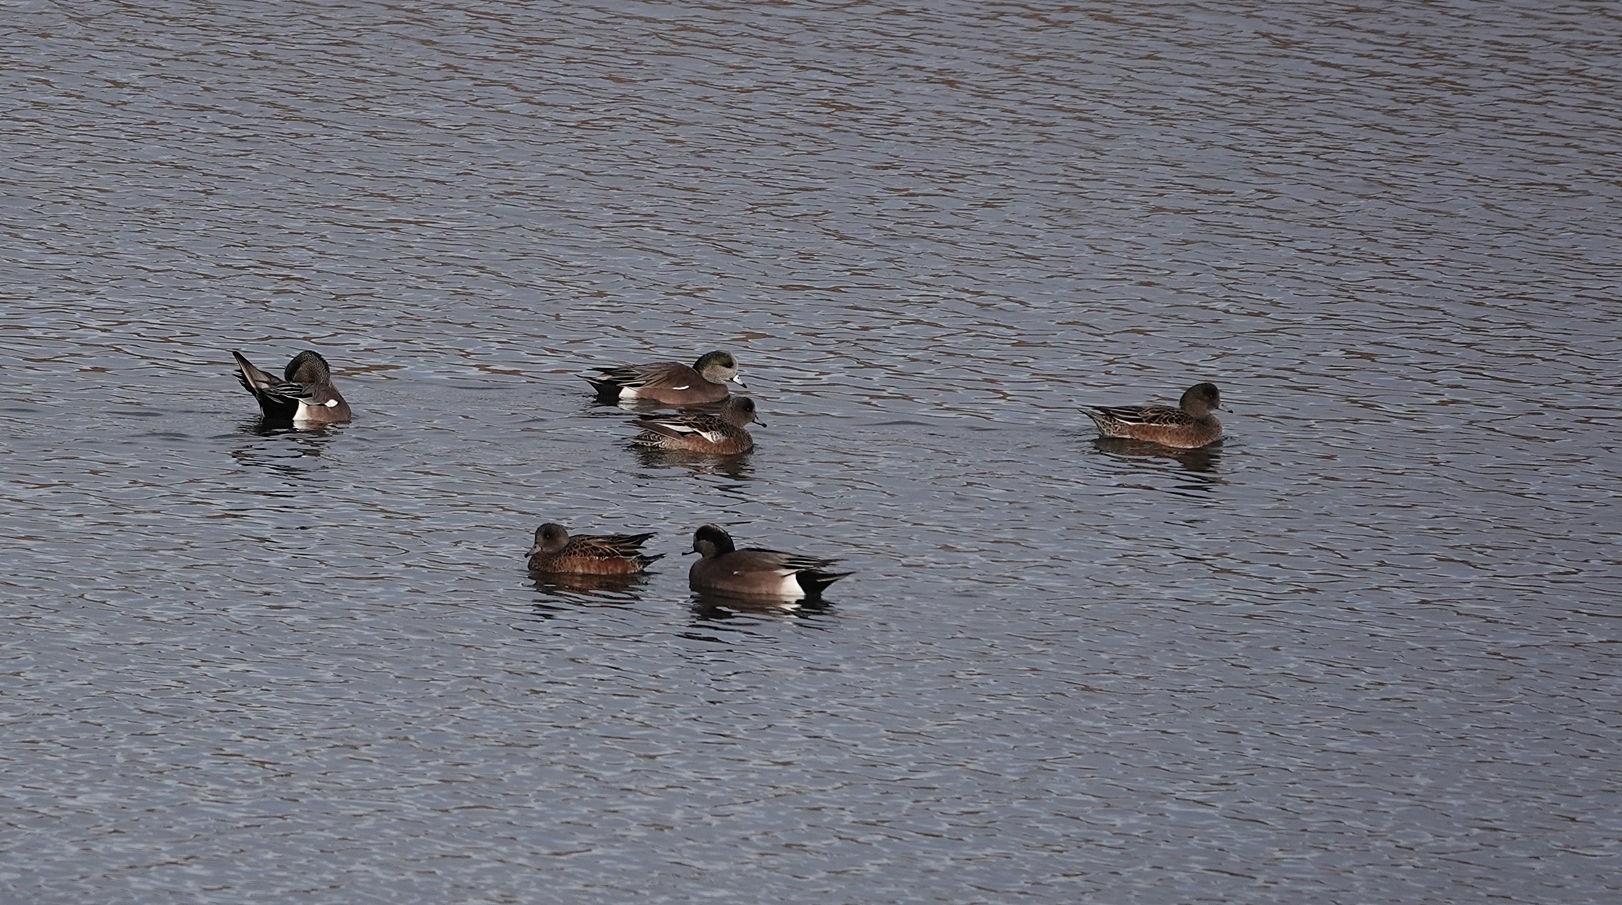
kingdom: Animalia
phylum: Chordata
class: Aves
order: Anseriformes
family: Anatidae
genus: Mareca
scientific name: Mareca americana
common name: American wigeon
